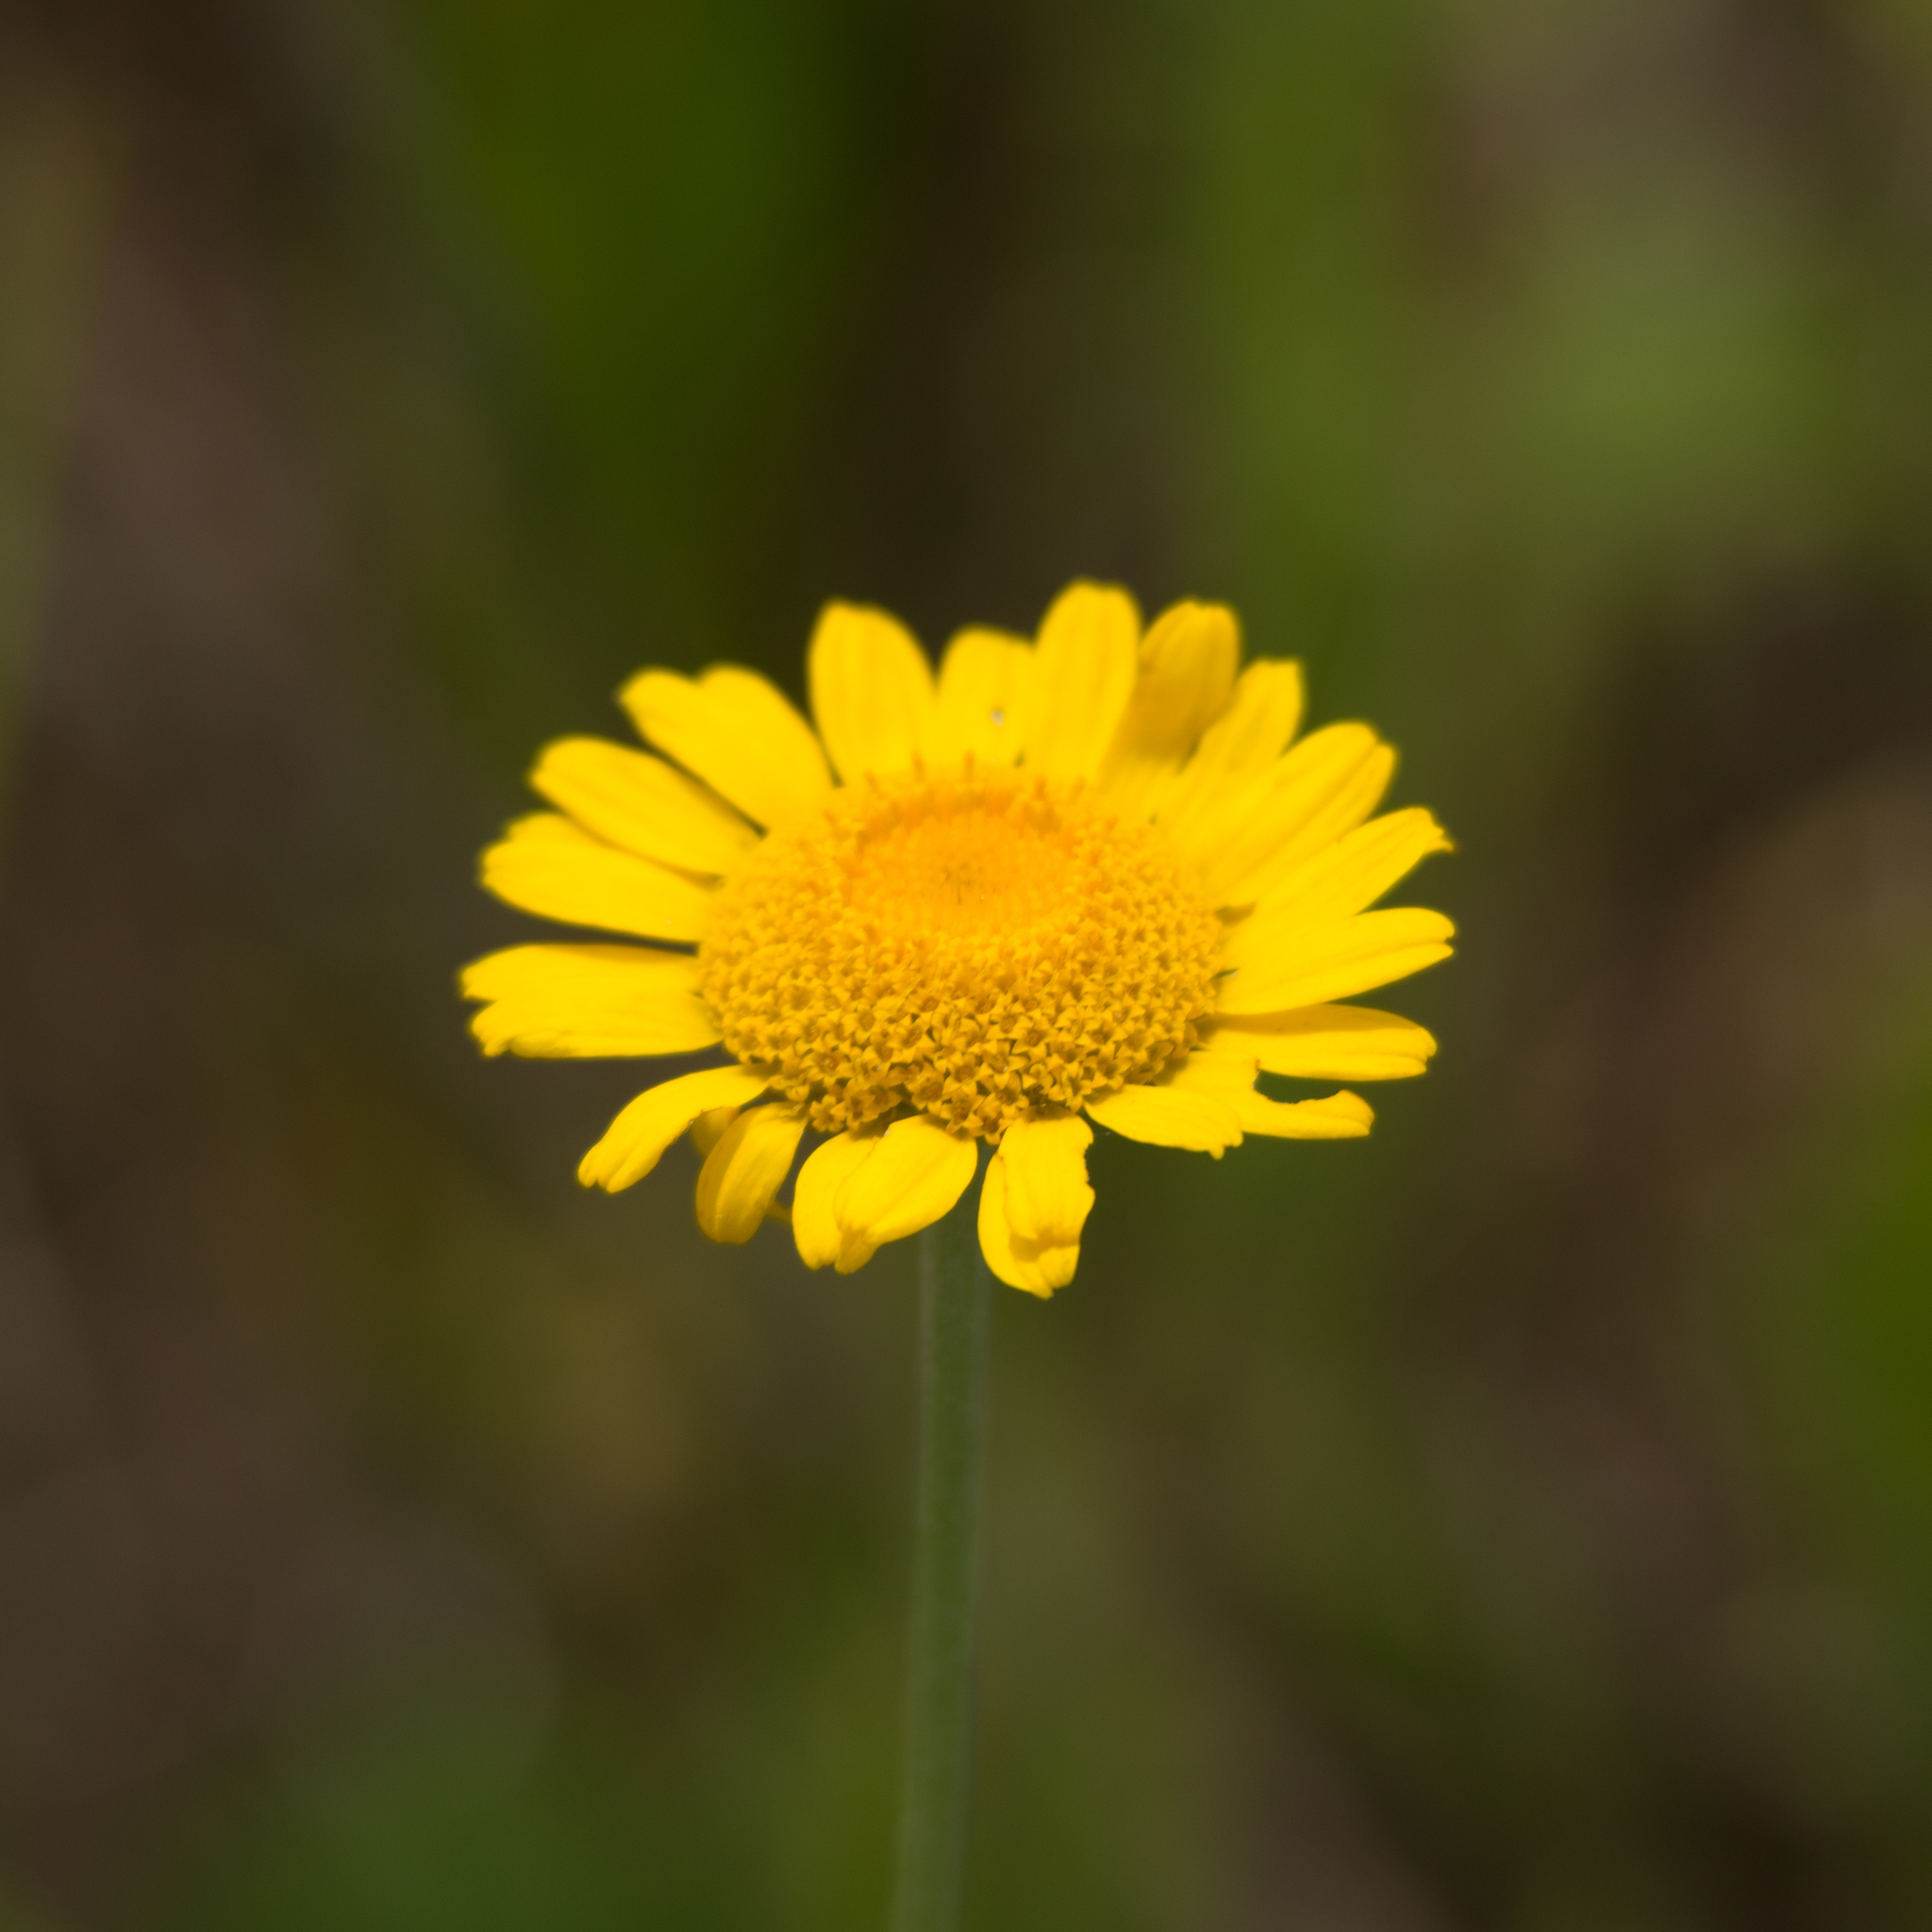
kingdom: Plantae
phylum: Tracheophyta
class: Magnoliopsida
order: Asterales
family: Asteraceae
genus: Cota
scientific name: Cota tinctoria
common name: Golden chamomile
